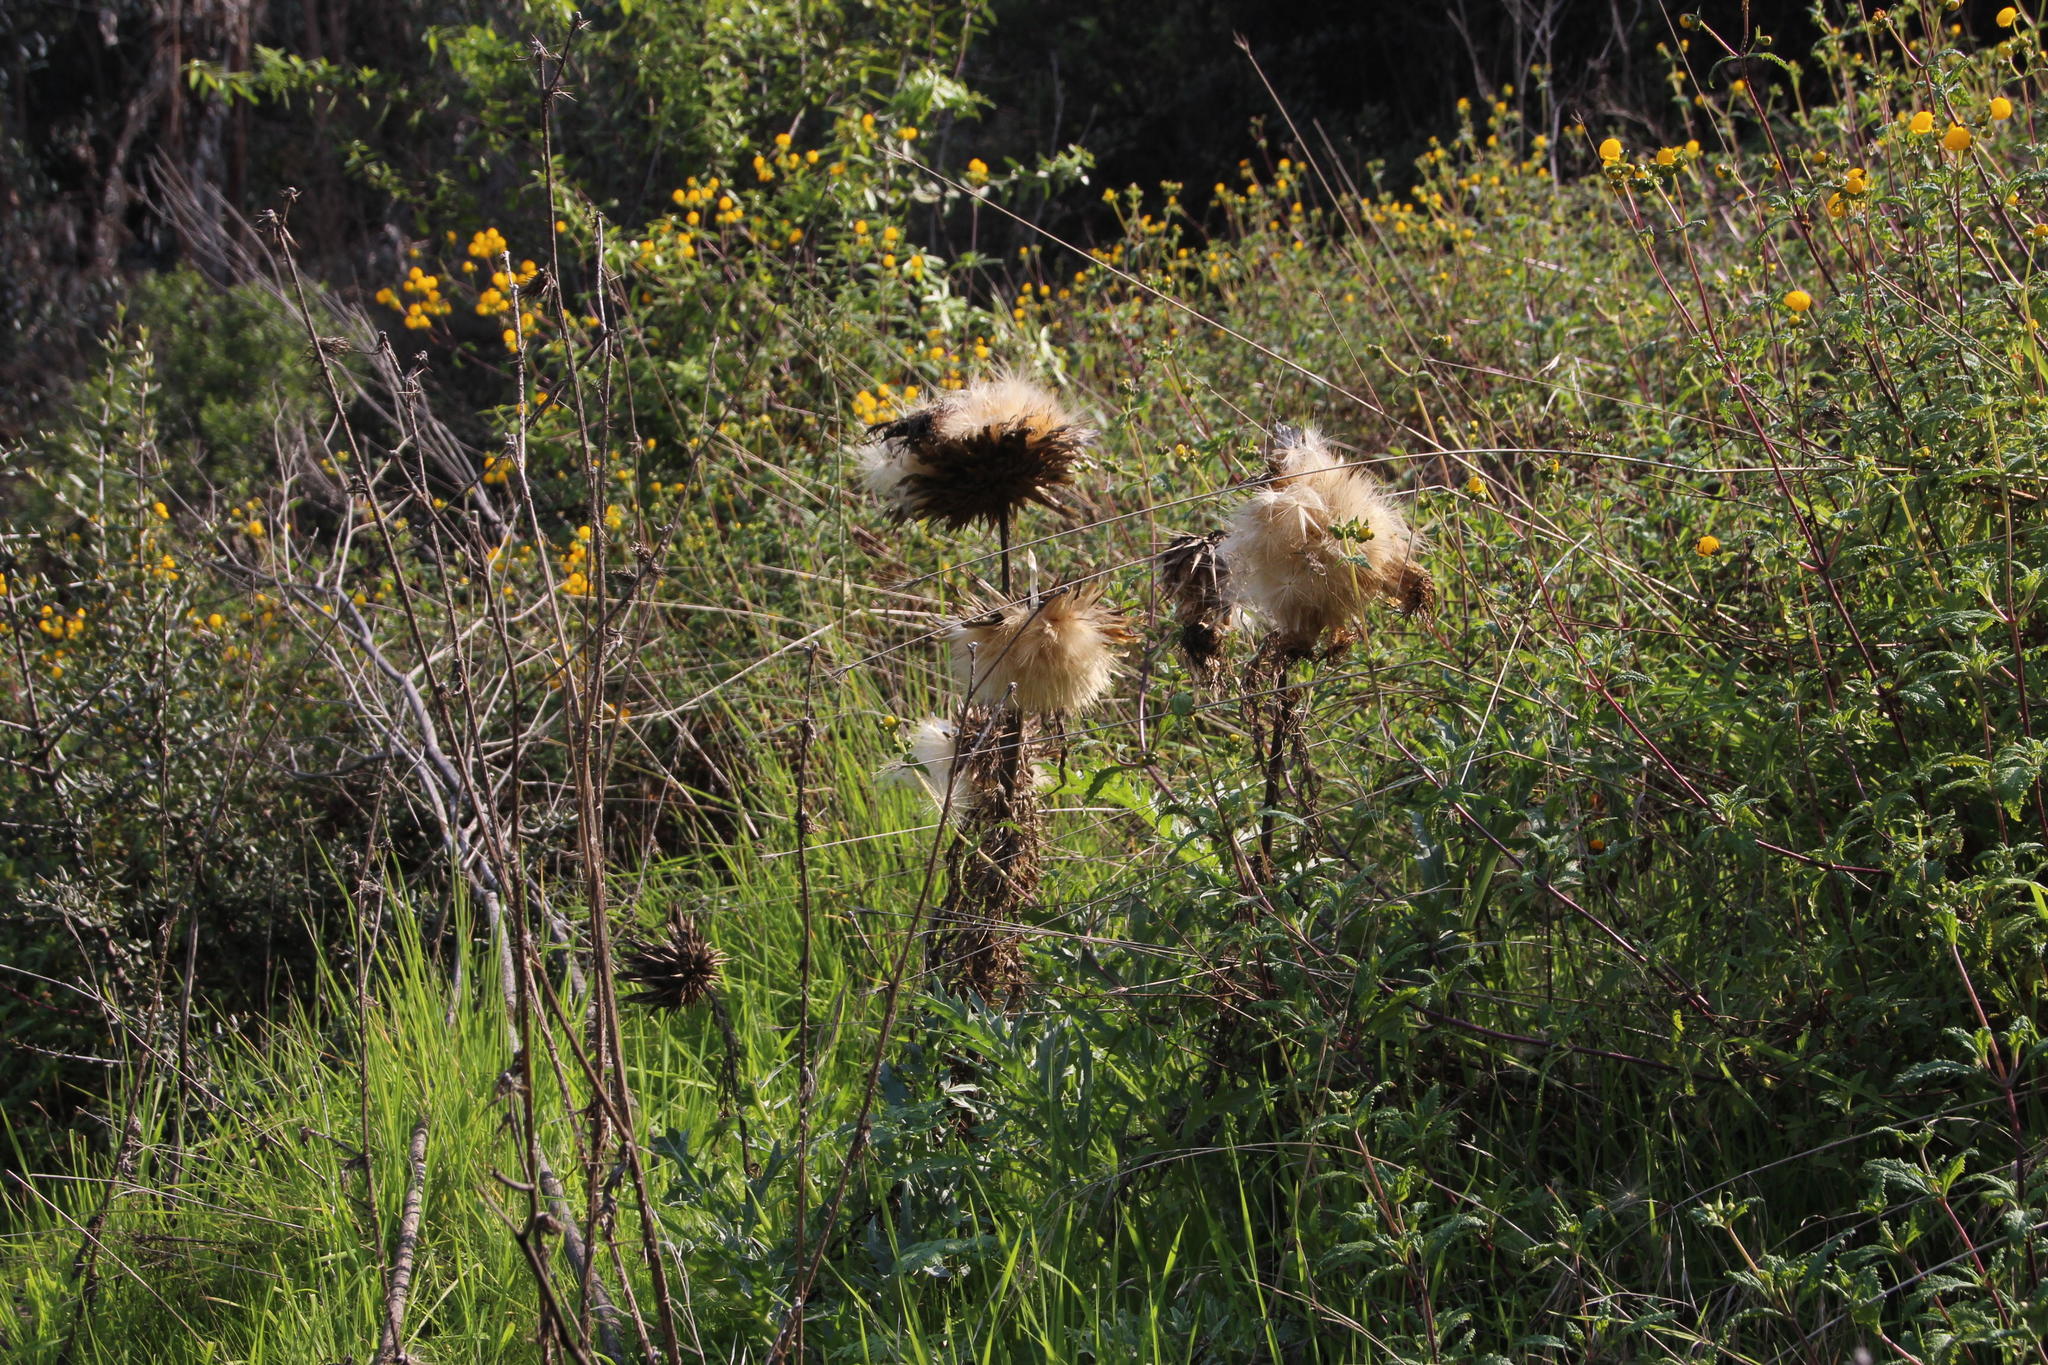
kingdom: Plantae
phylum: Tracheophyta
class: Magnoliopsida
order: Asterales
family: Asteraceae
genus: Cynara
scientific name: Cynara cardunculus
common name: Globe artichoke
